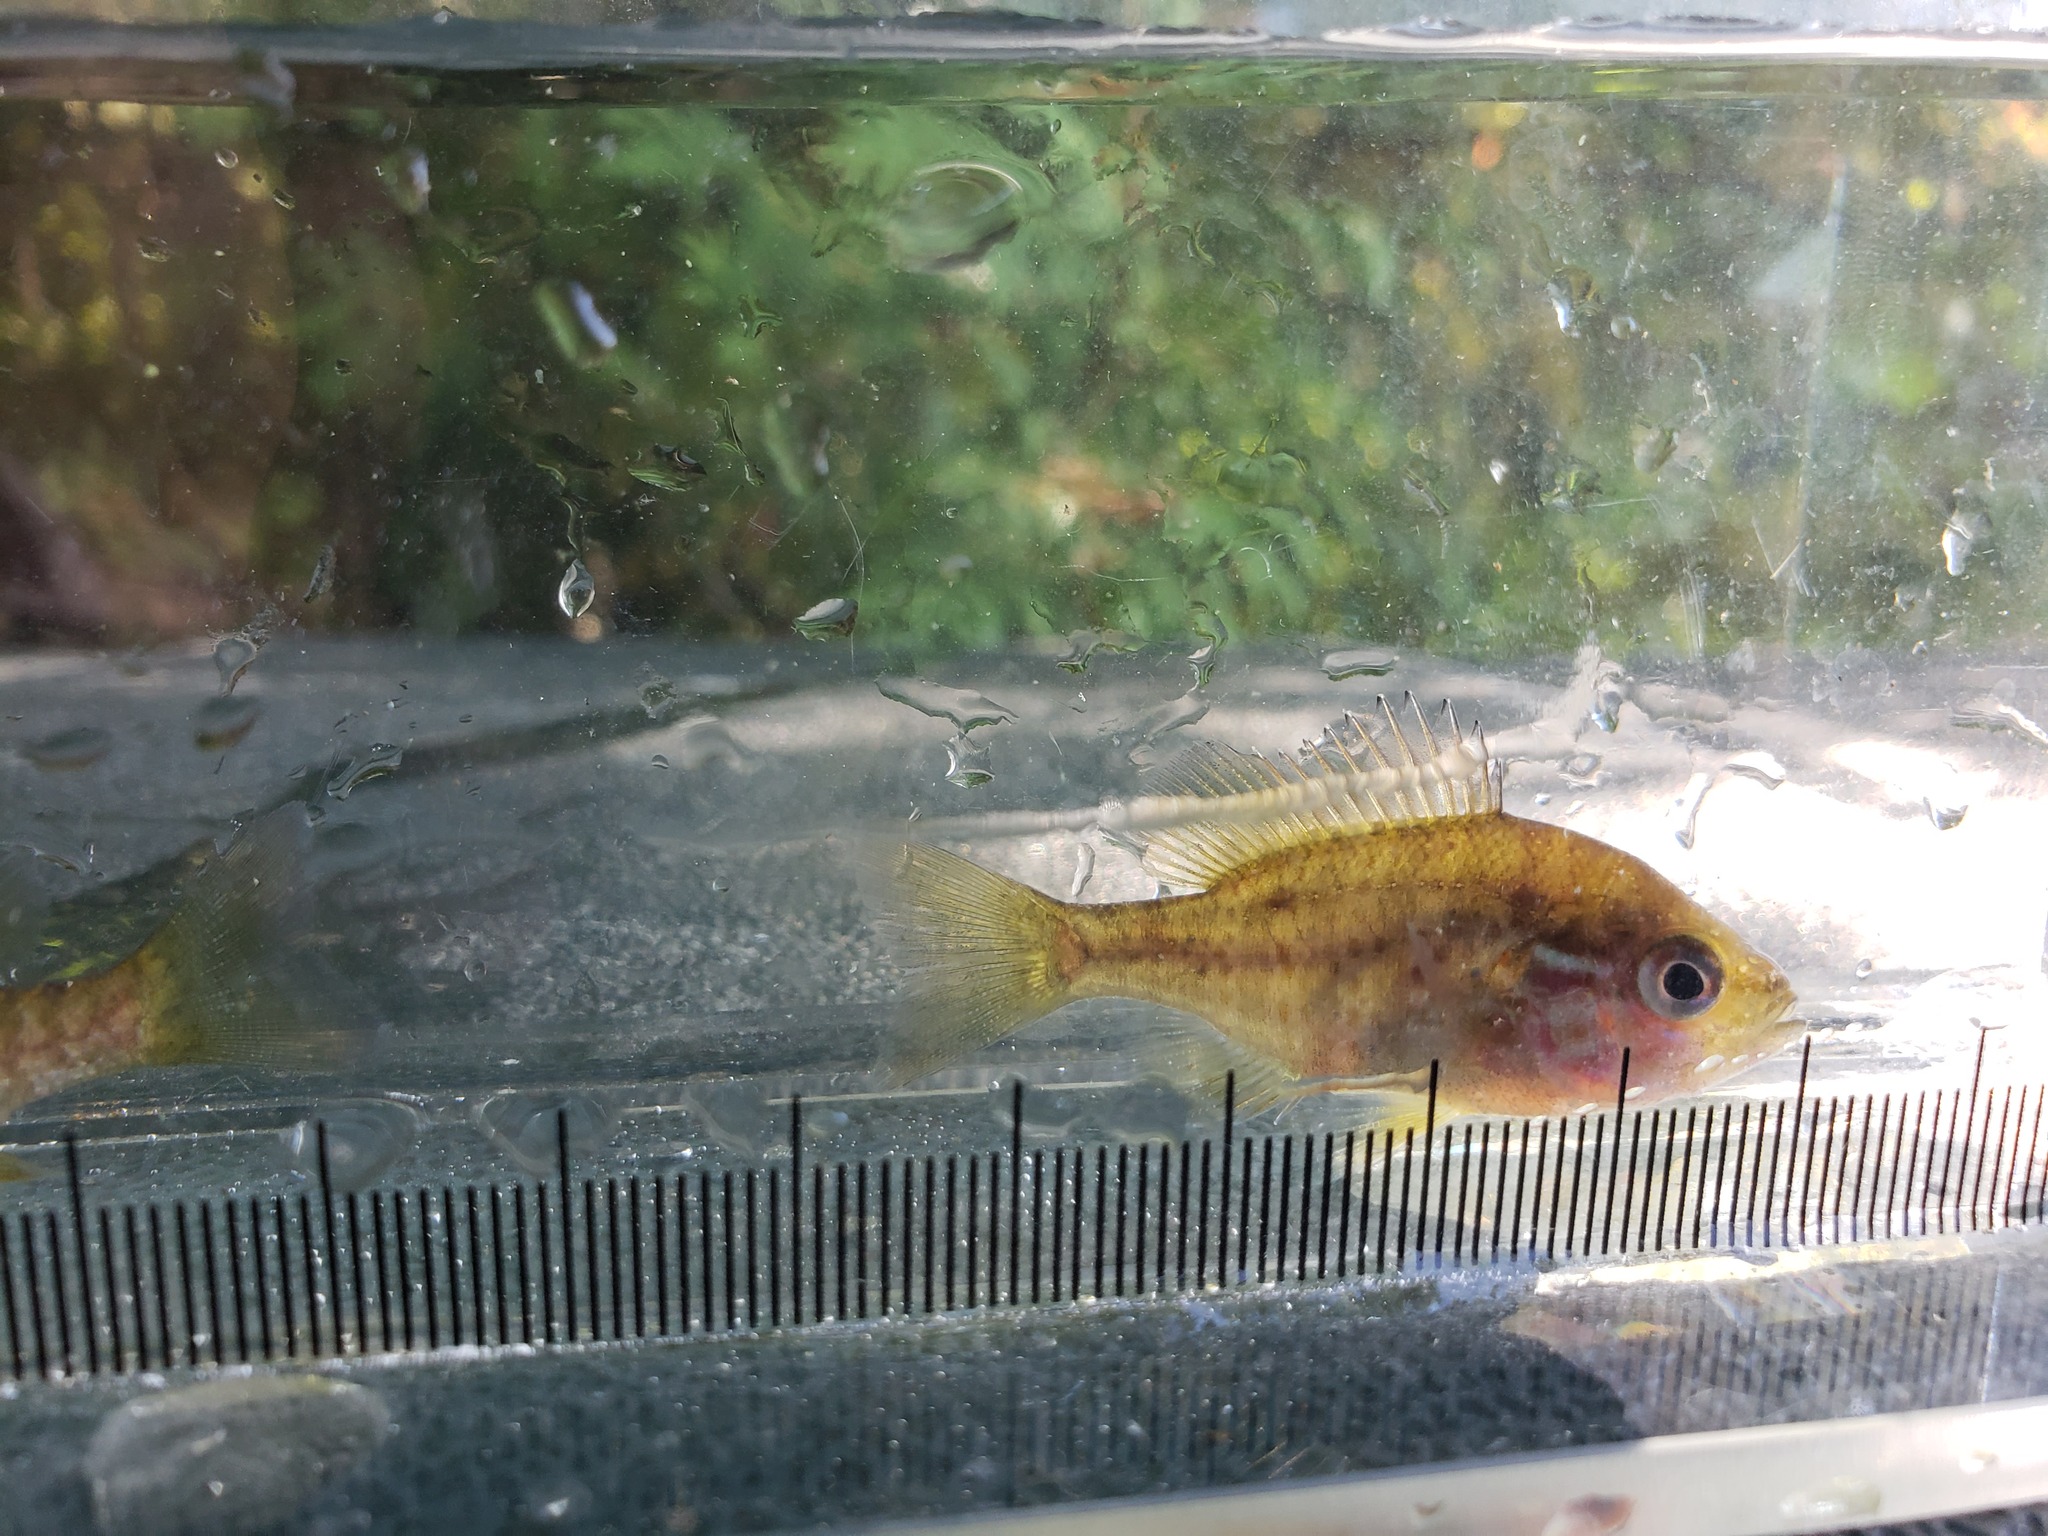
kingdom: Animalia
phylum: Chordata
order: Perciformes
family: Centrarchidae
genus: Lepomis
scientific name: Lepomis gibbosus
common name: Pumpkinseed
